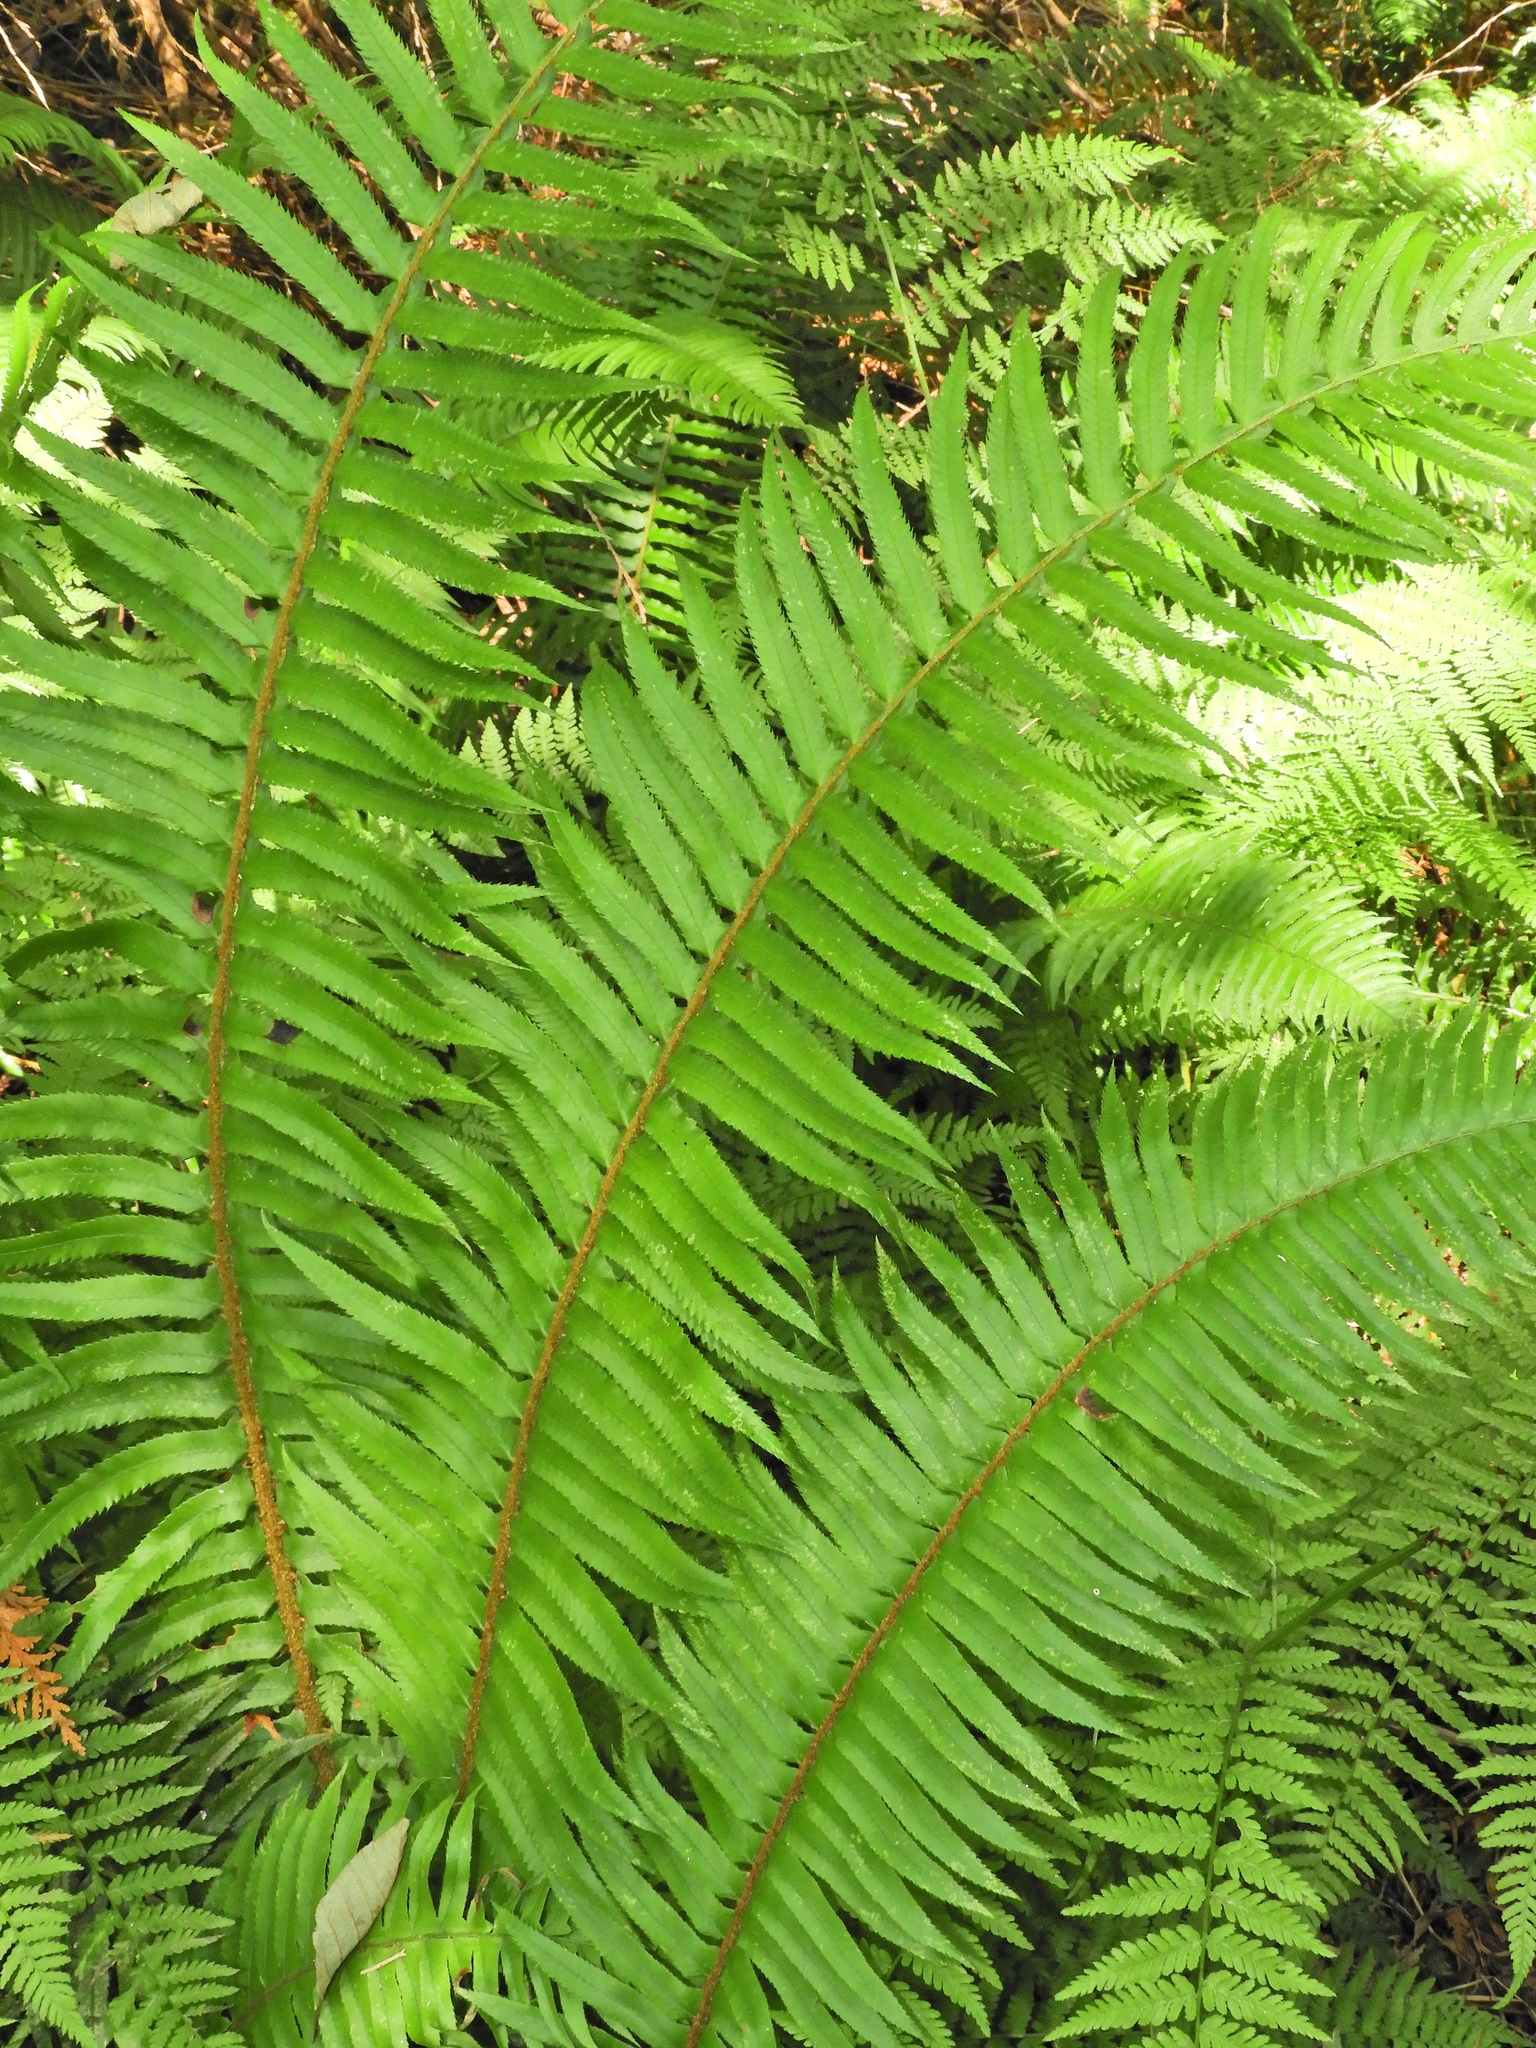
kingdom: Plantae
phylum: Tracheophyta
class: Polypodiopsida
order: Polypodiales
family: Dryopteridaceae
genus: Polystichum
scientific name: Polystichum munitum
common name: Western sword-fern
